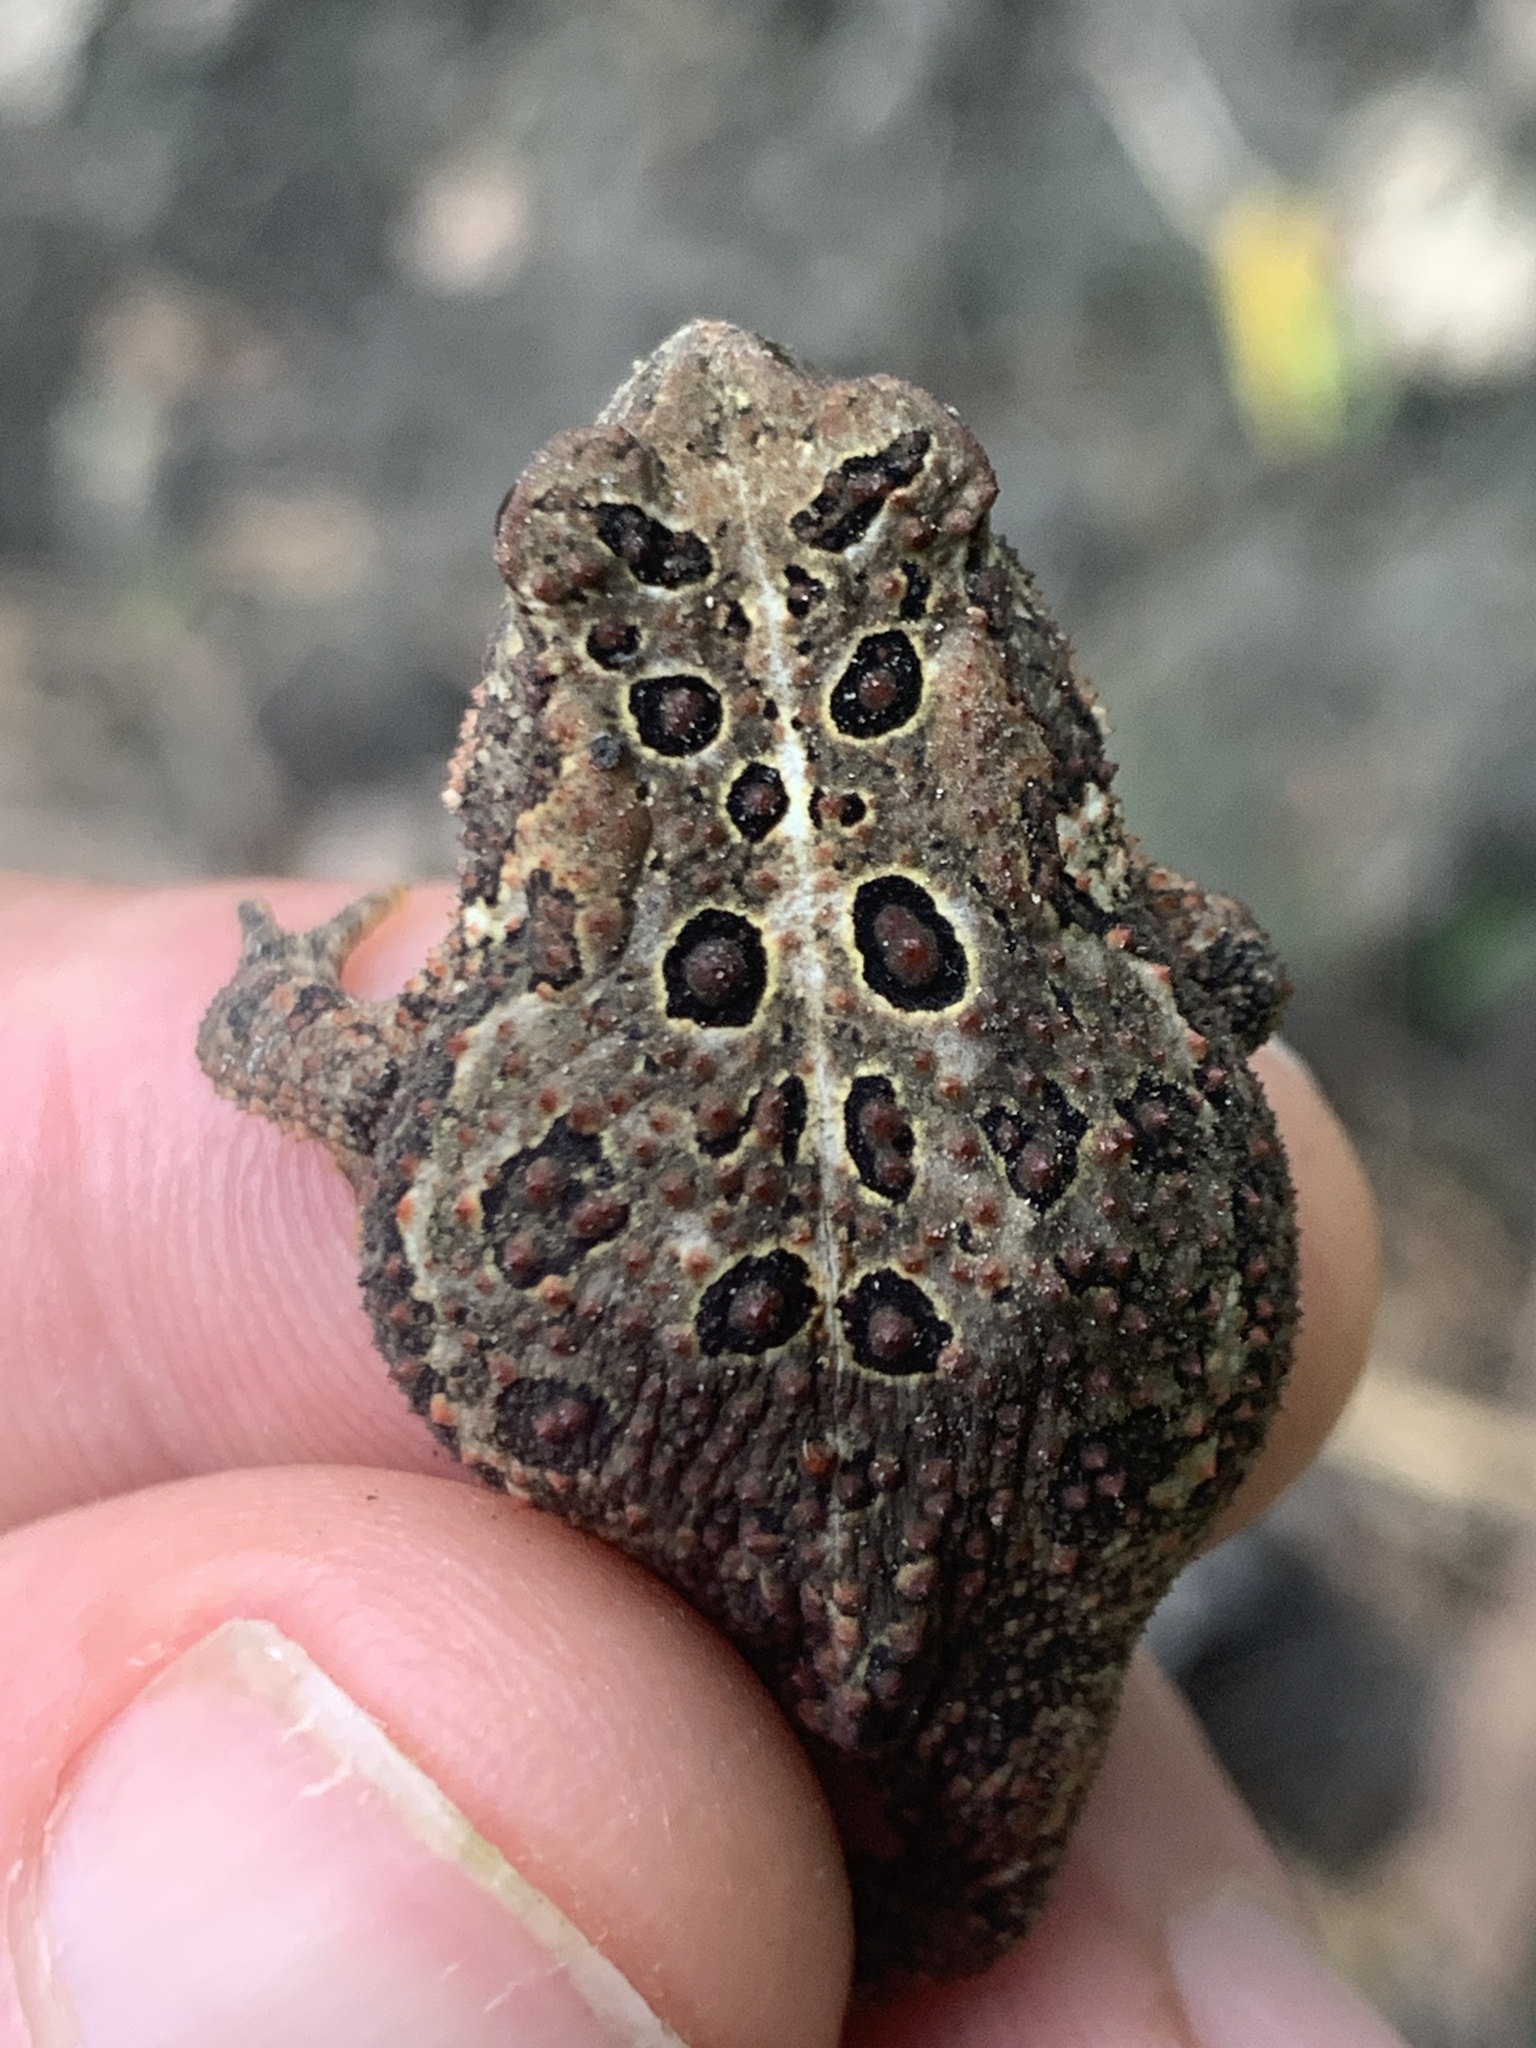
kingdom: Animalia
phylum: Chordata
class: Amphibia
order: Anura
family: Bufonidae
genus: Anaxyrus
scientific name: Anaxyrus americanus
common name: American toad
